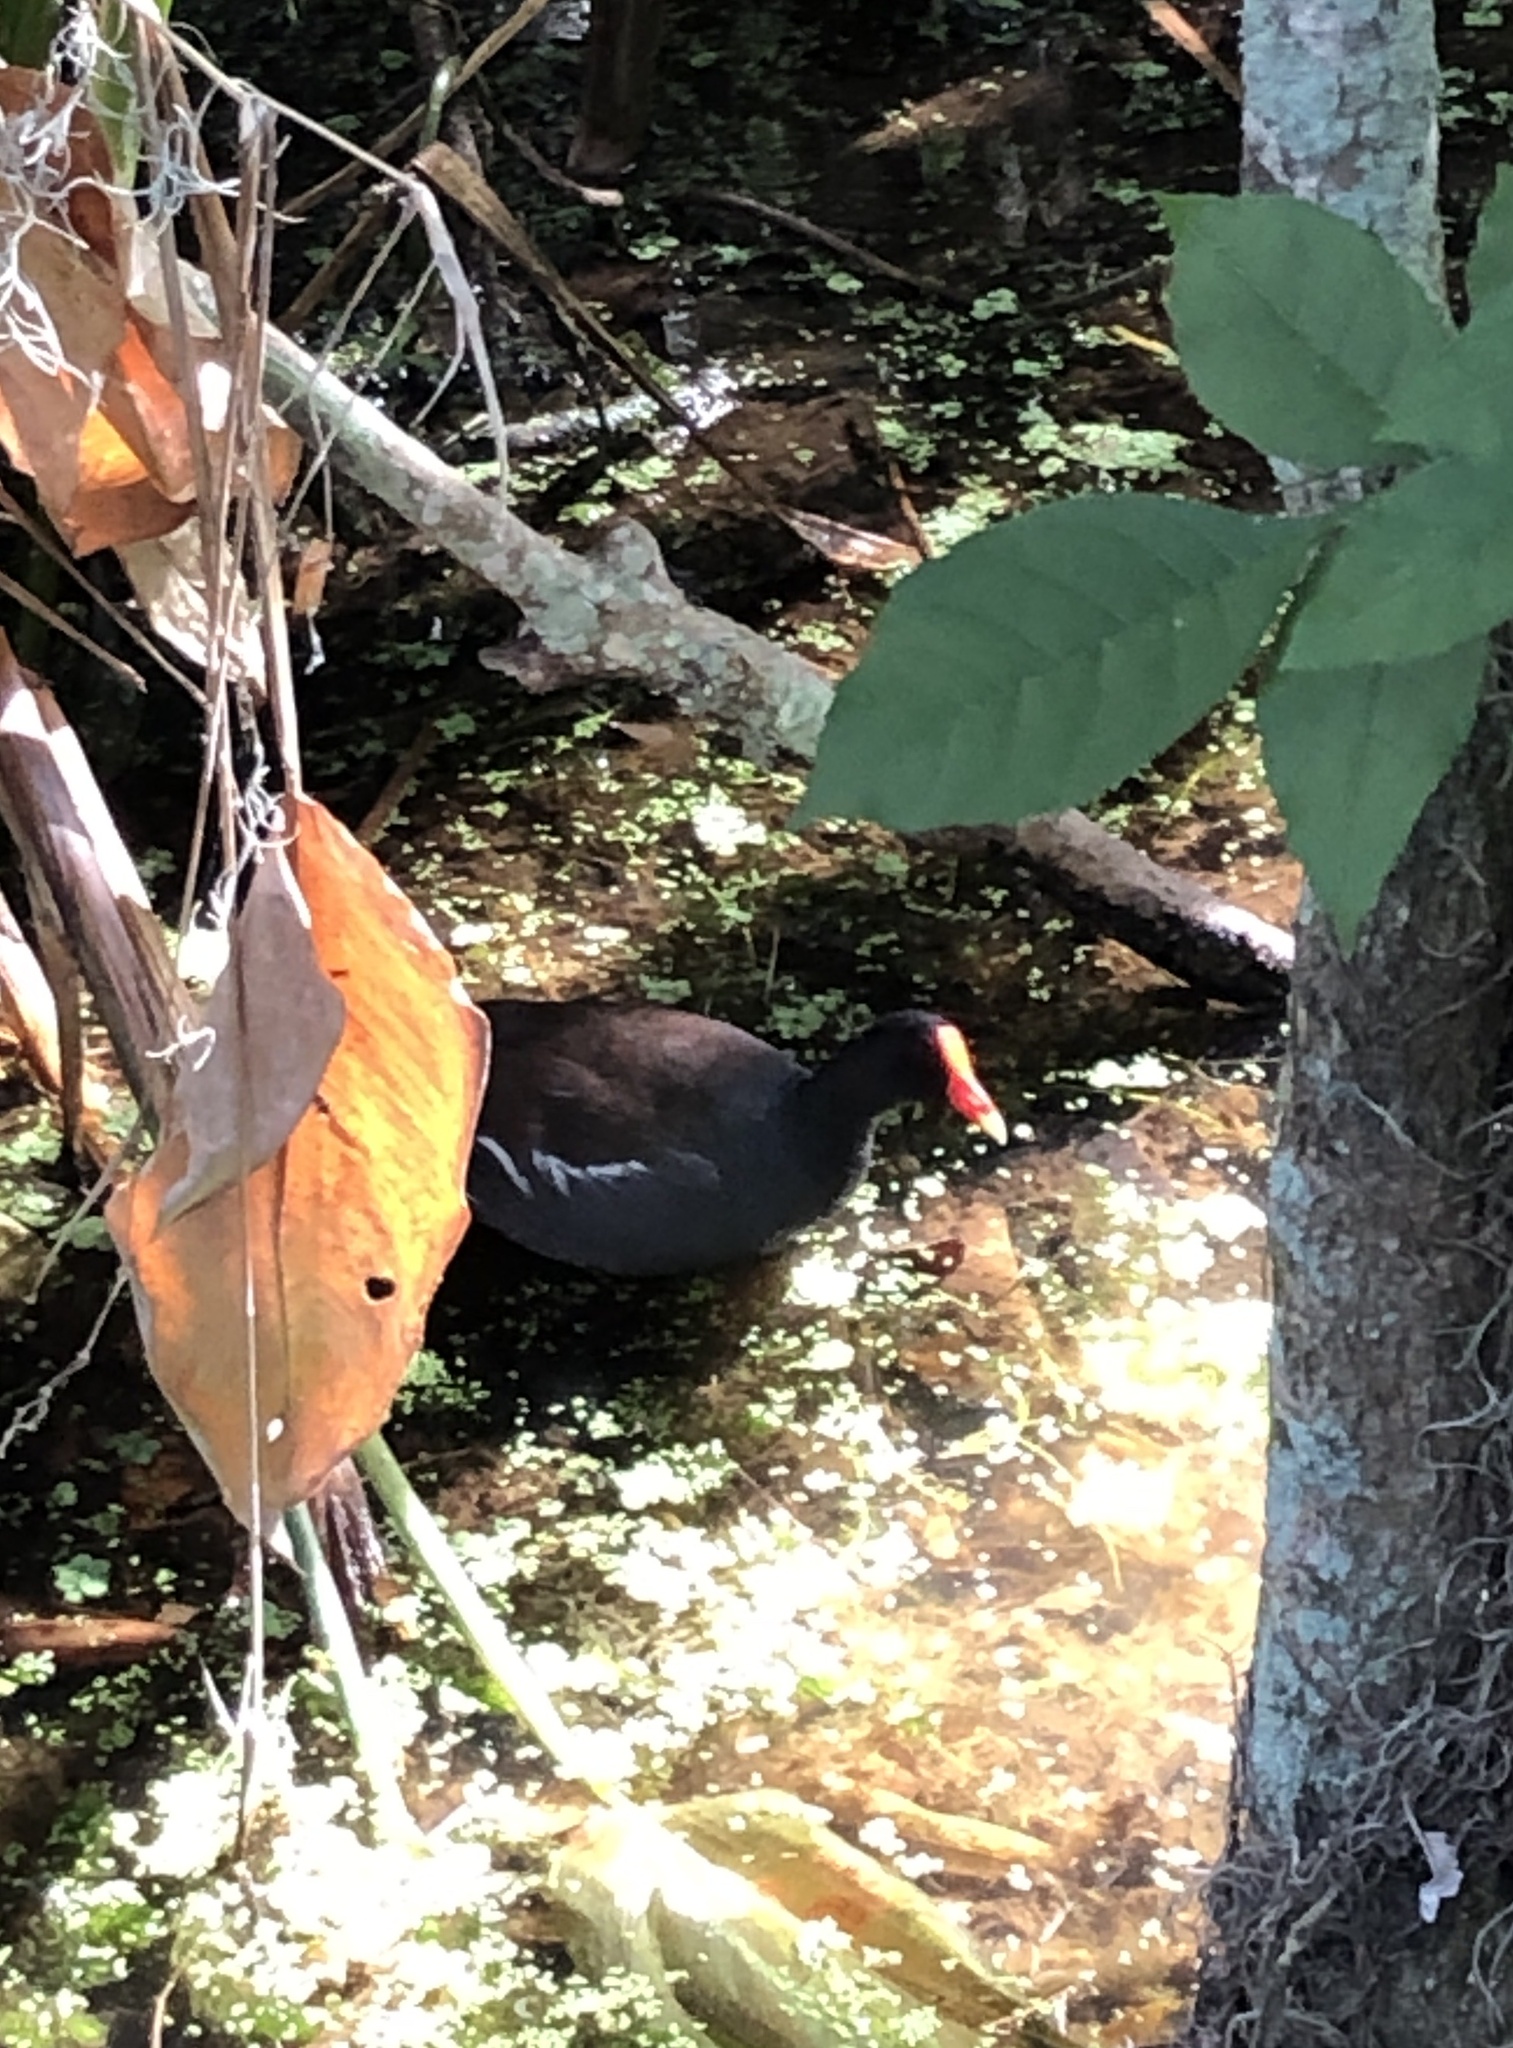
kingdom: Animalia
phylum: Chordata
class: Aves
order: Gruiformes
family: Rallidae
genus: Gallinula
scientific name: Gallinula chloropus
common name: Common moorhen
